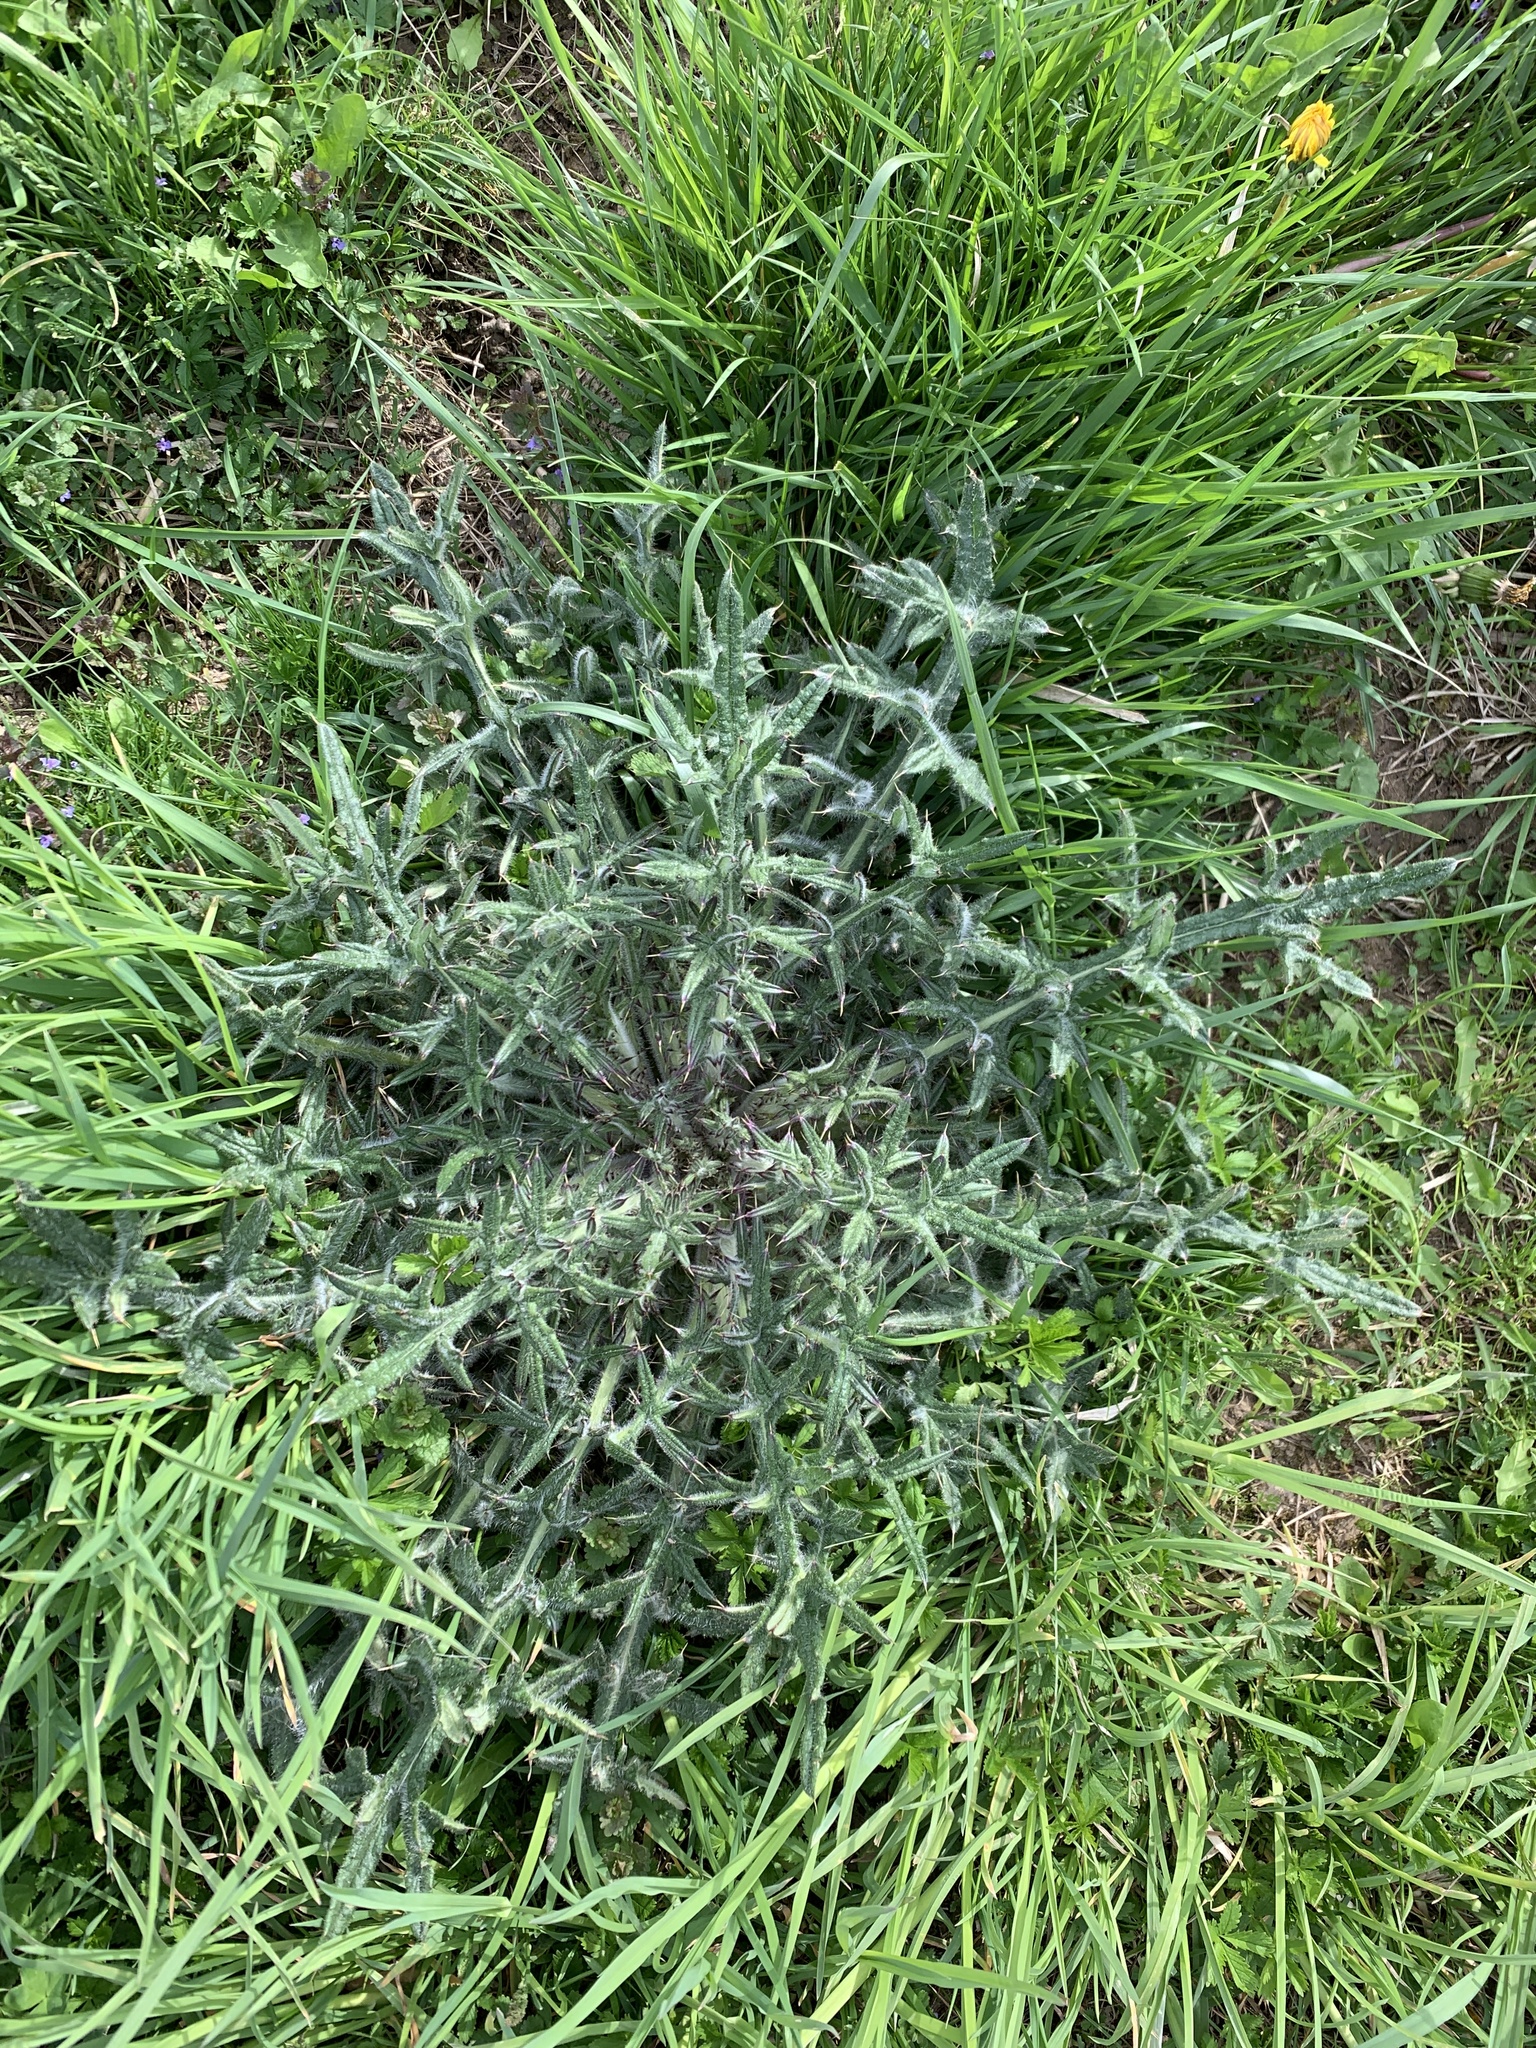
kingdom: Plantae
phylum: Tracheophyta
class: Magnoliopsida
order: Asterales
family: Asteraceae
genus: Cirsium
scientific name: Cirsium vulgare
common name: Bull thistle
